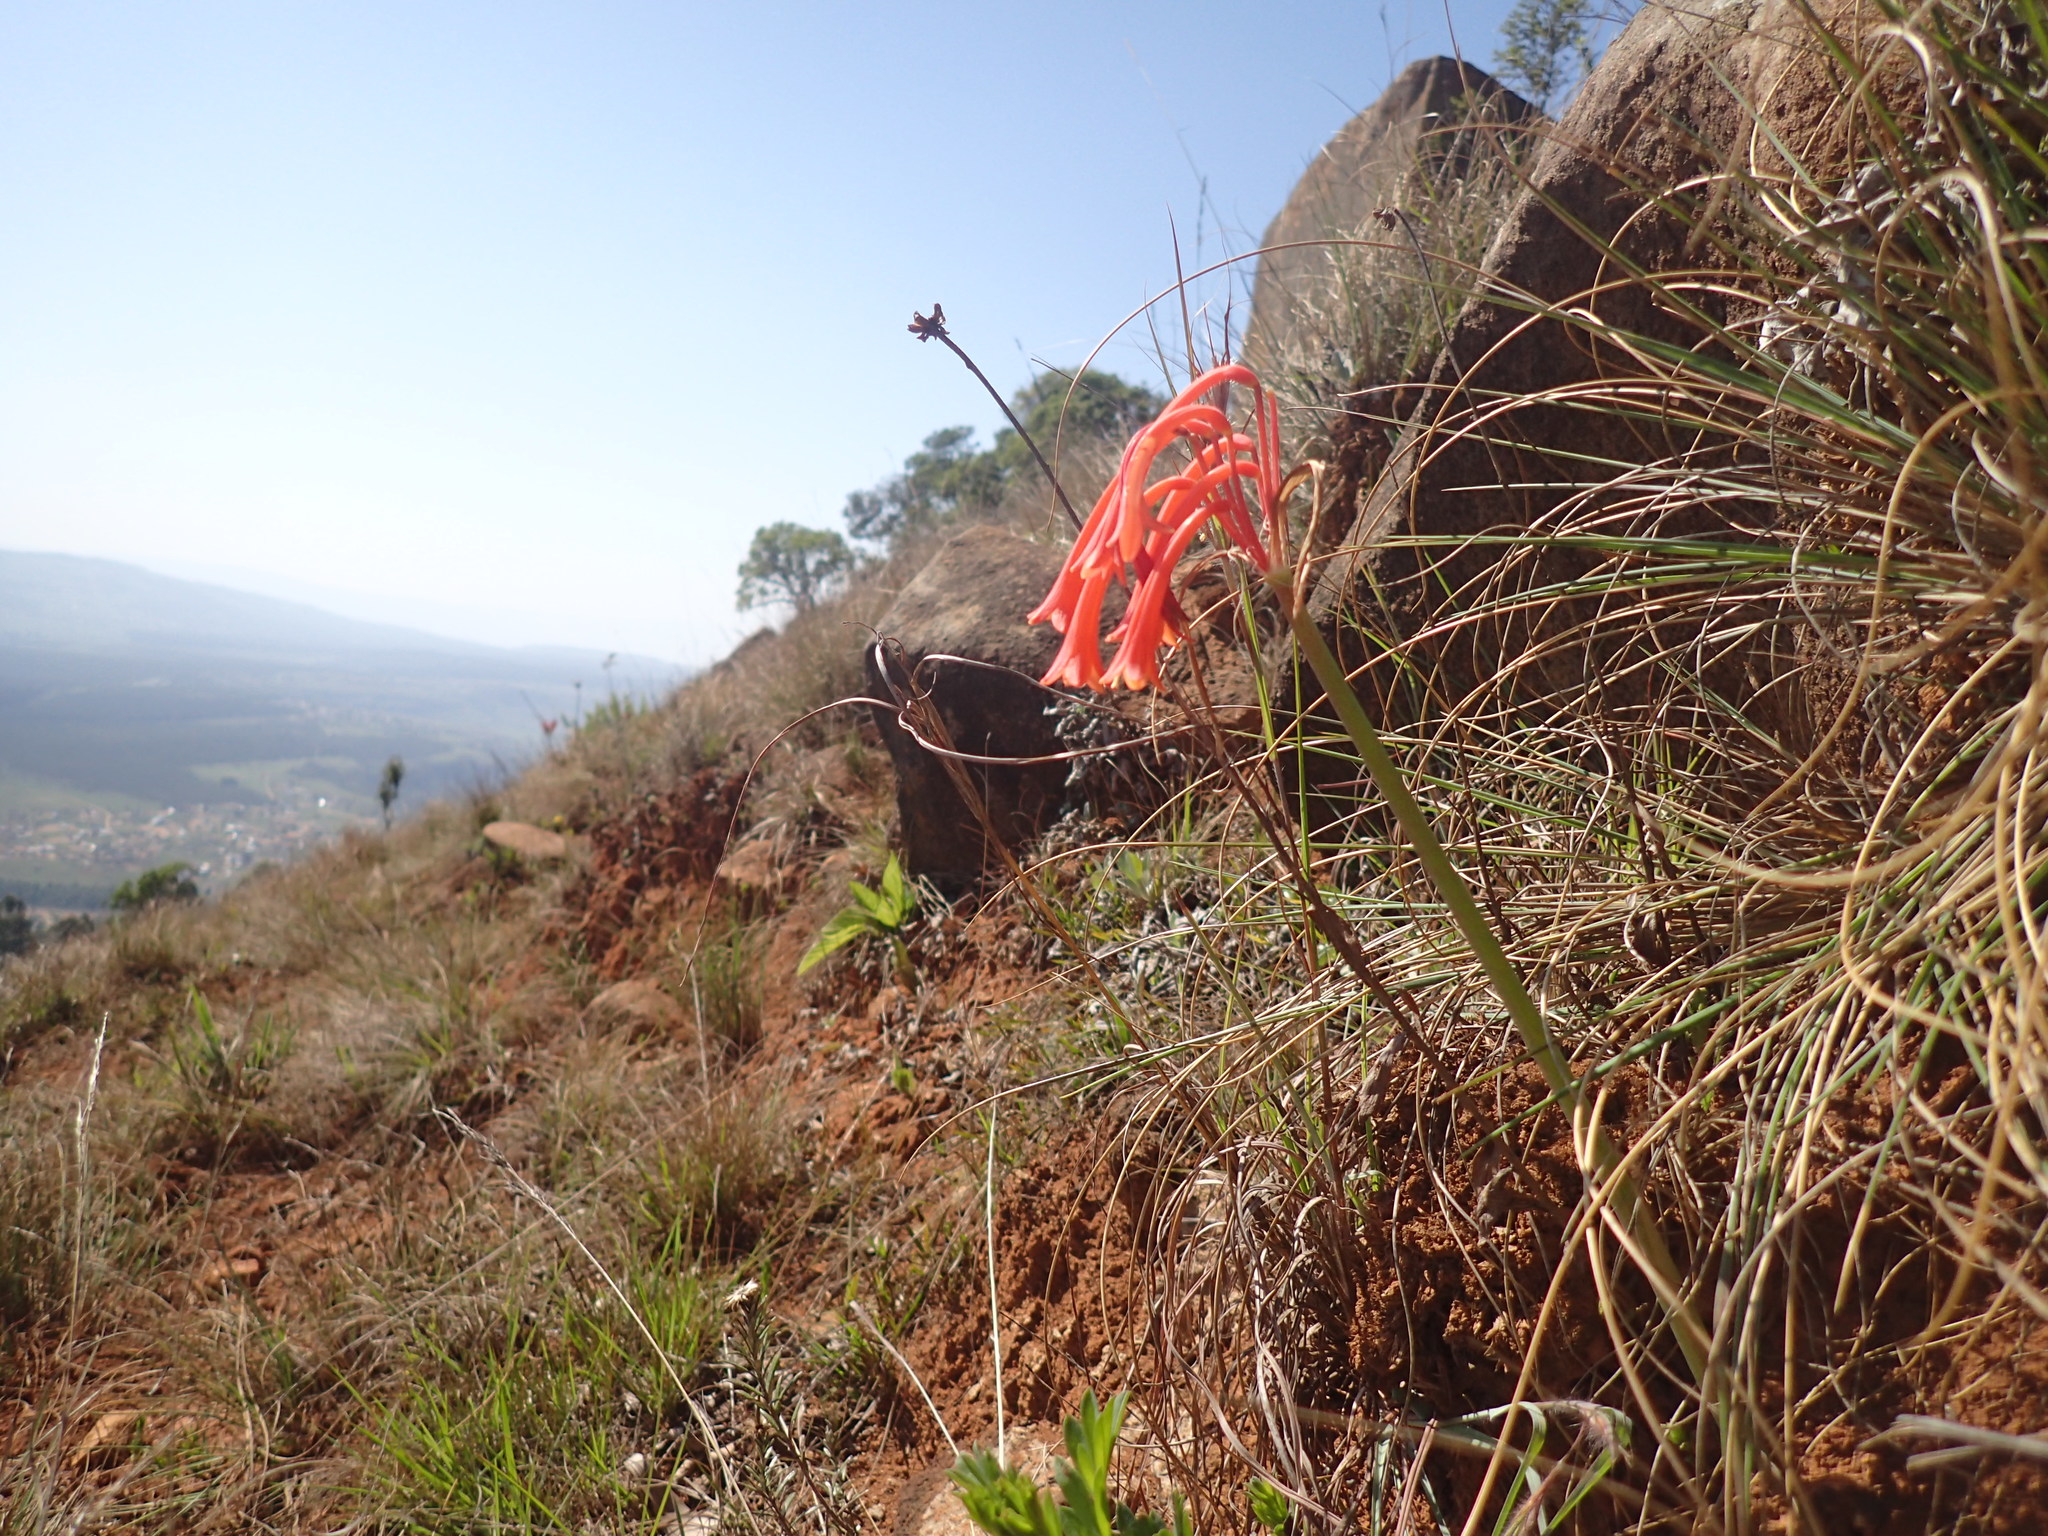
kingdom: Plantae
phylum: Tracheophyta
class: Liliopsida
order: Asparagales
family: Amaryllidaceae
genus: Cyrtanthus
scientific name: Cyrtanthus obrienii
